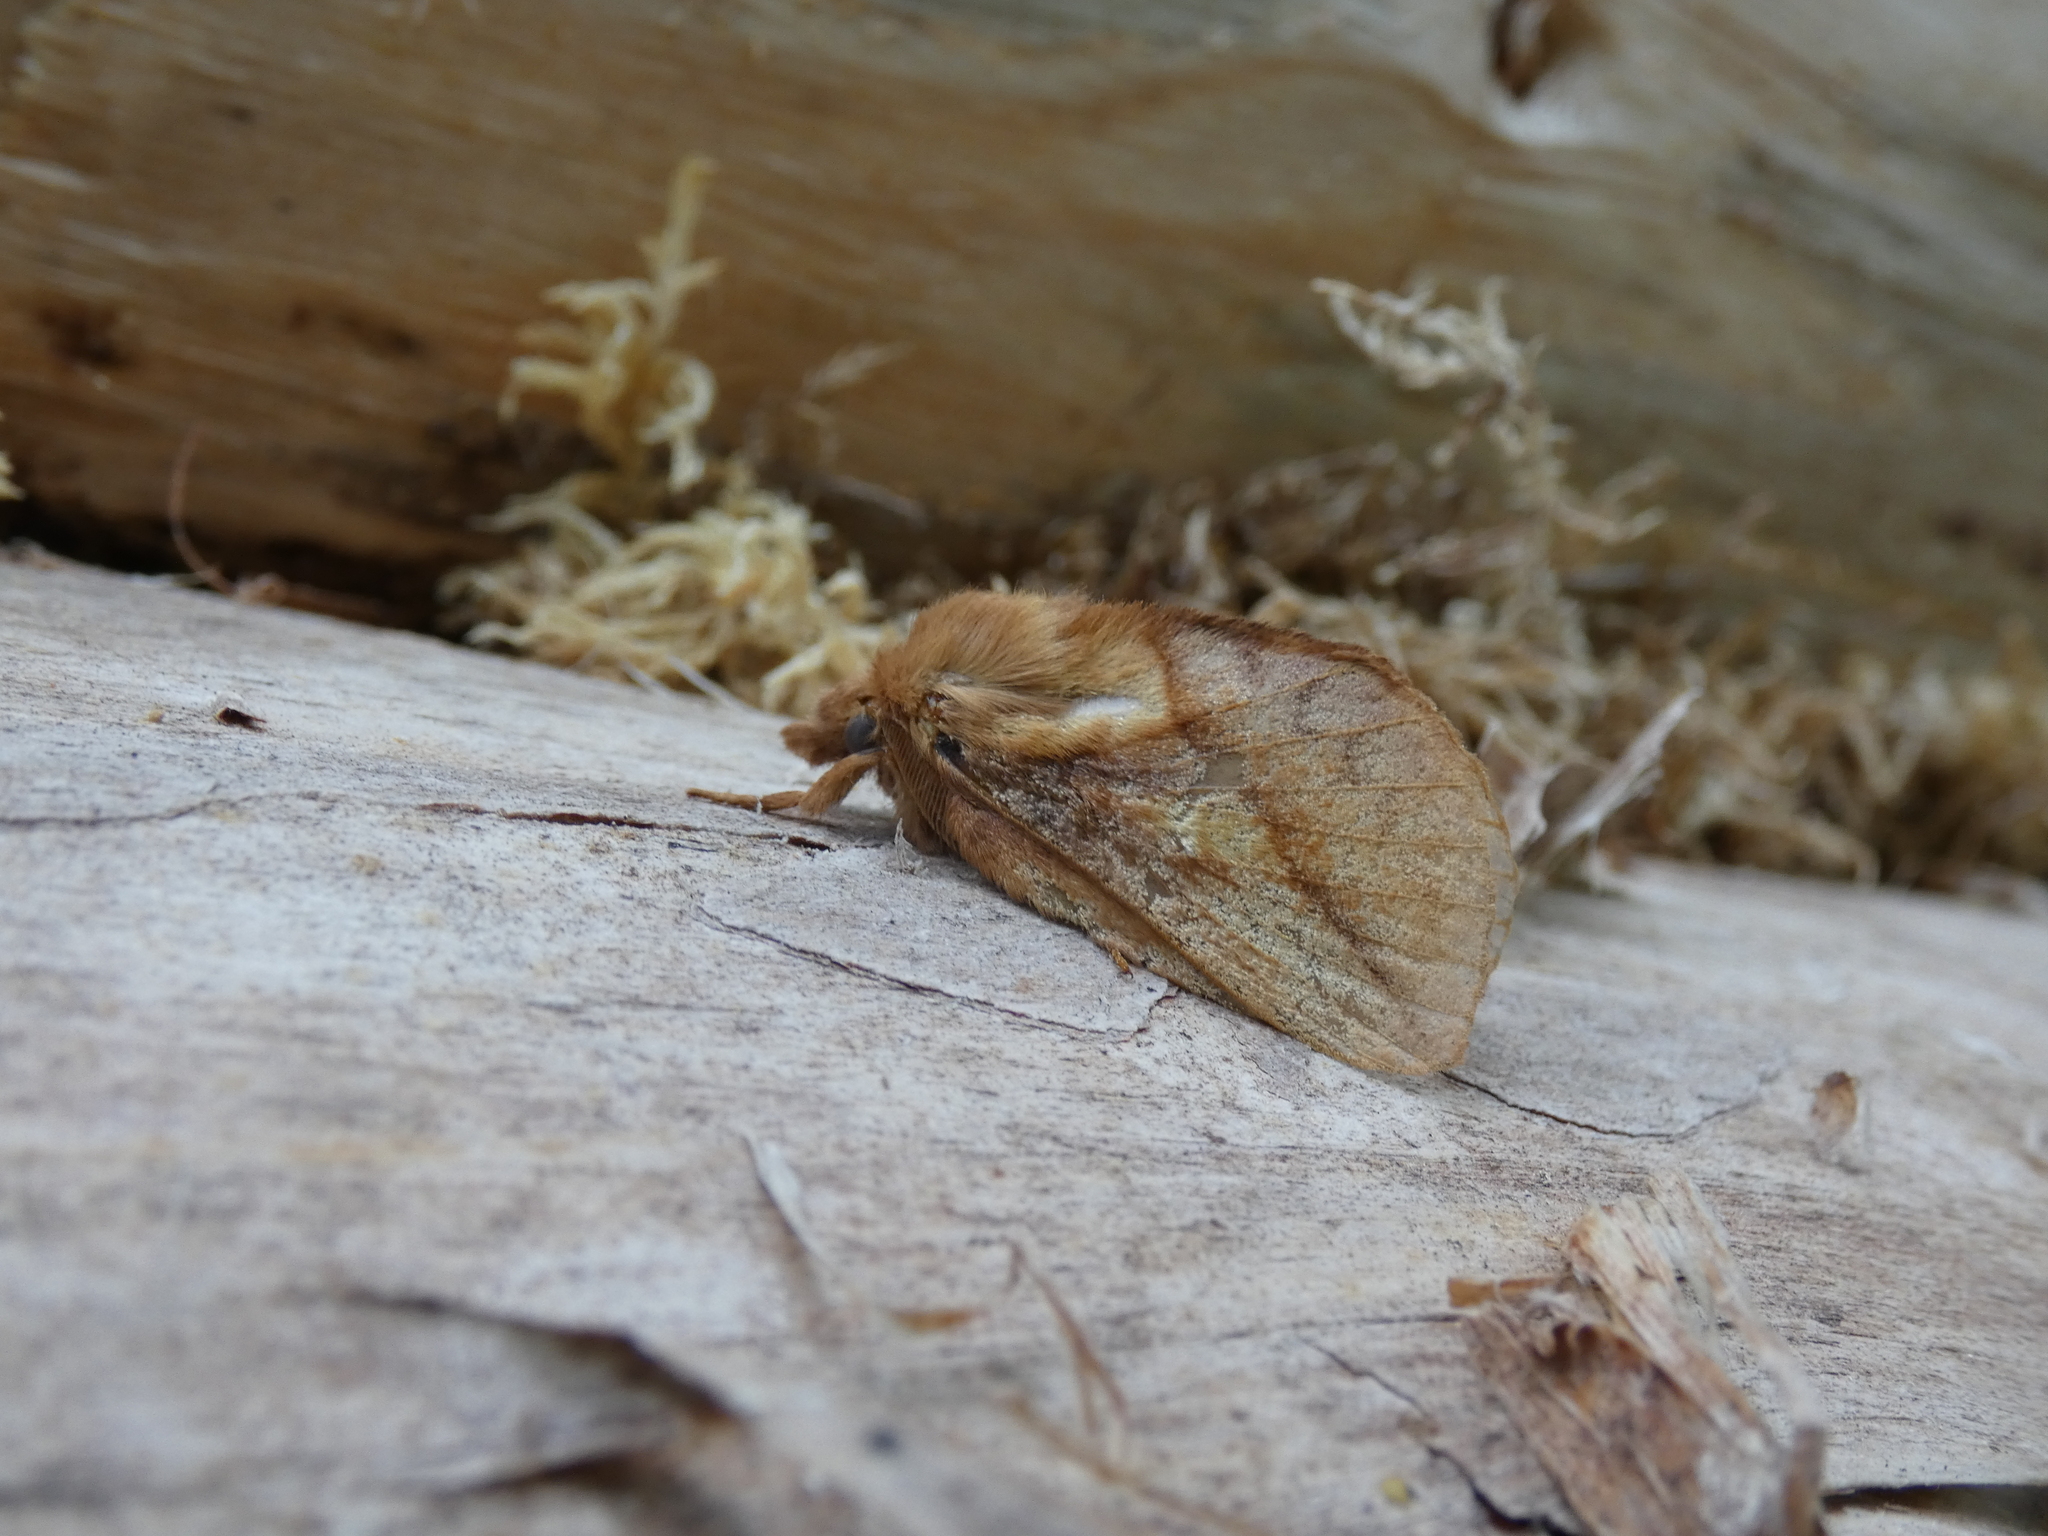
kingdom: Animalia
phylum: Arthropoda
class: Insecta
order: Lepidoptera
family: Lasiocampidae
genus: Euthrix
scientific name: Euthrix potatoria
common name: Drinker
